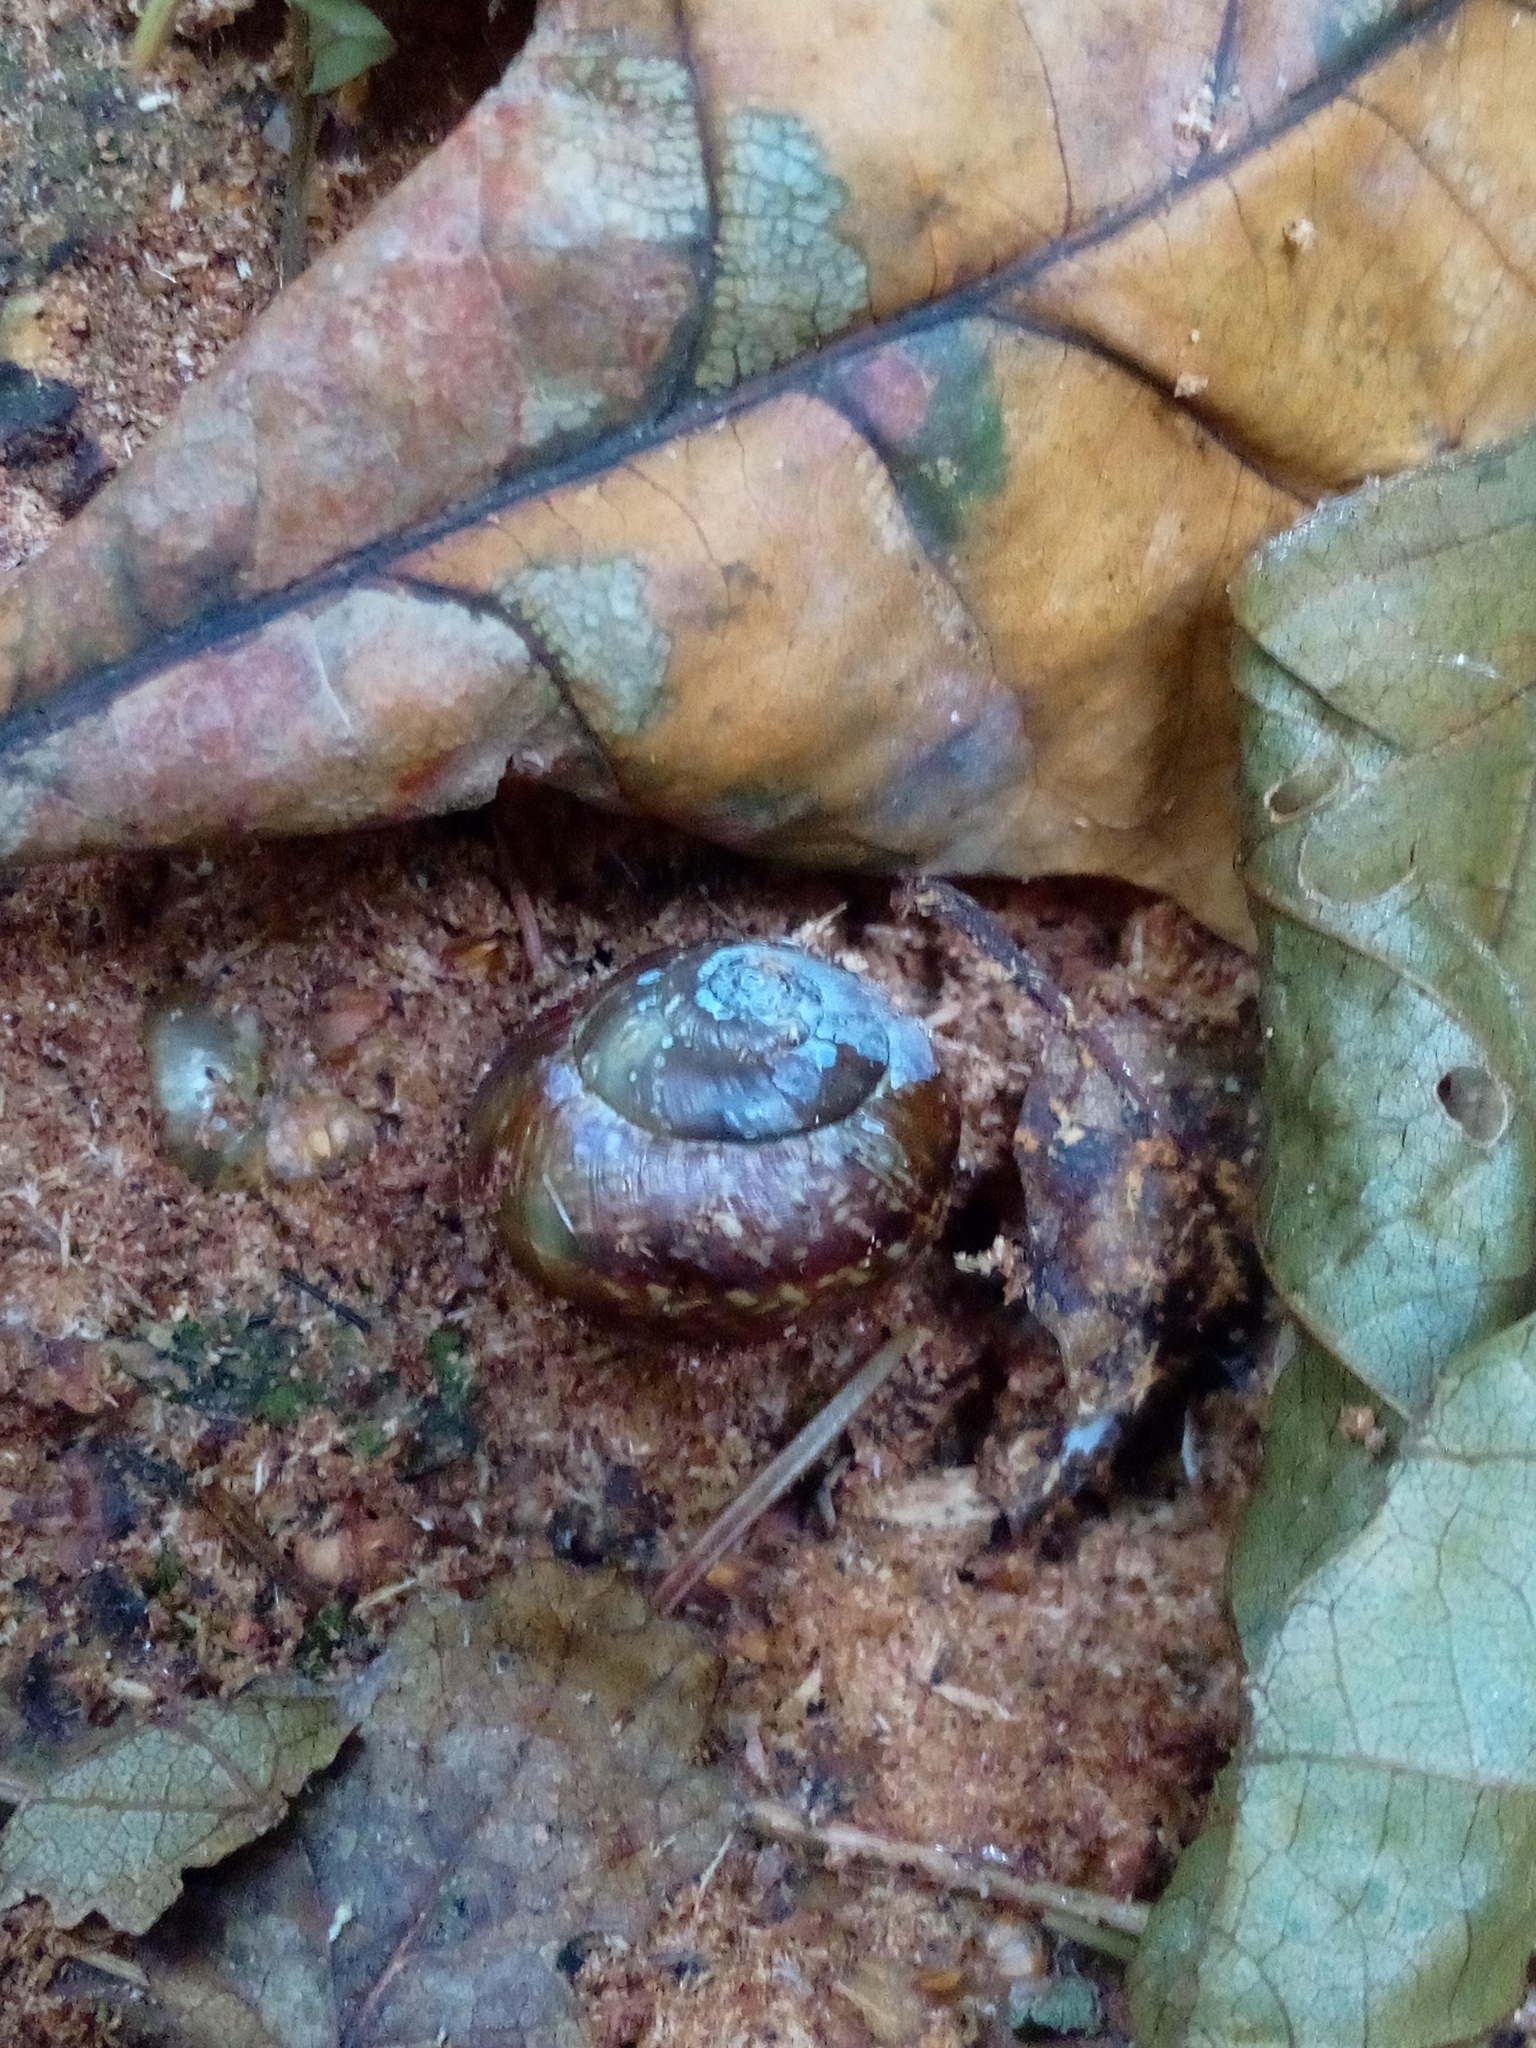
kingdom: Animalia
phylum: Mollusca
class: Gastropoda
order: Stylommatophora
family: Helicidae
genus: Arianta
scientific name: Arianta arbustorum
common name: Copse snail
